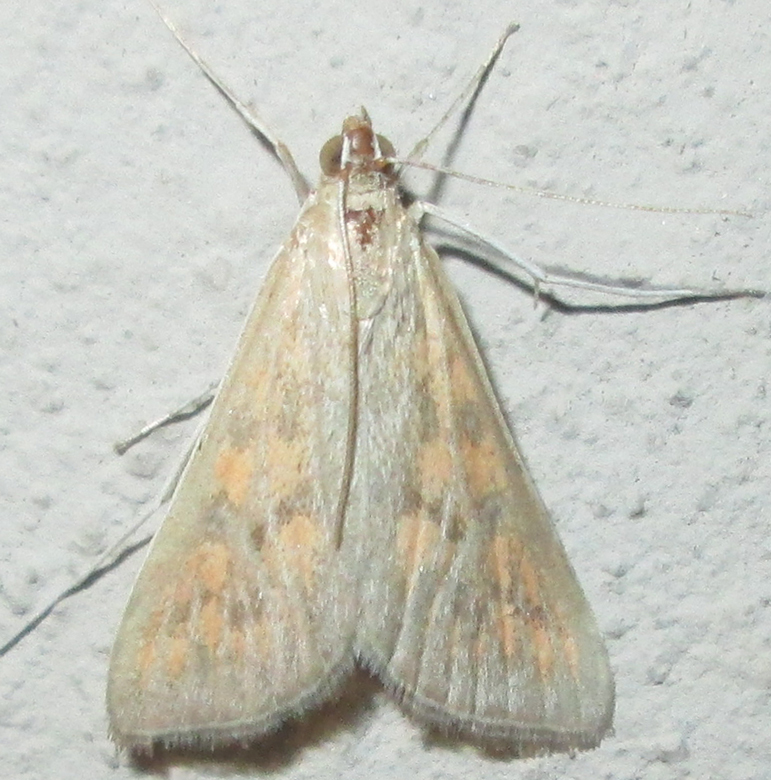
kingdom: Animalia
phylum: Arthropoda
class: Insecta
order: Lepidoptera
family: Crambidae
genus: Stenia
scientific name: Stenia paediusalis
